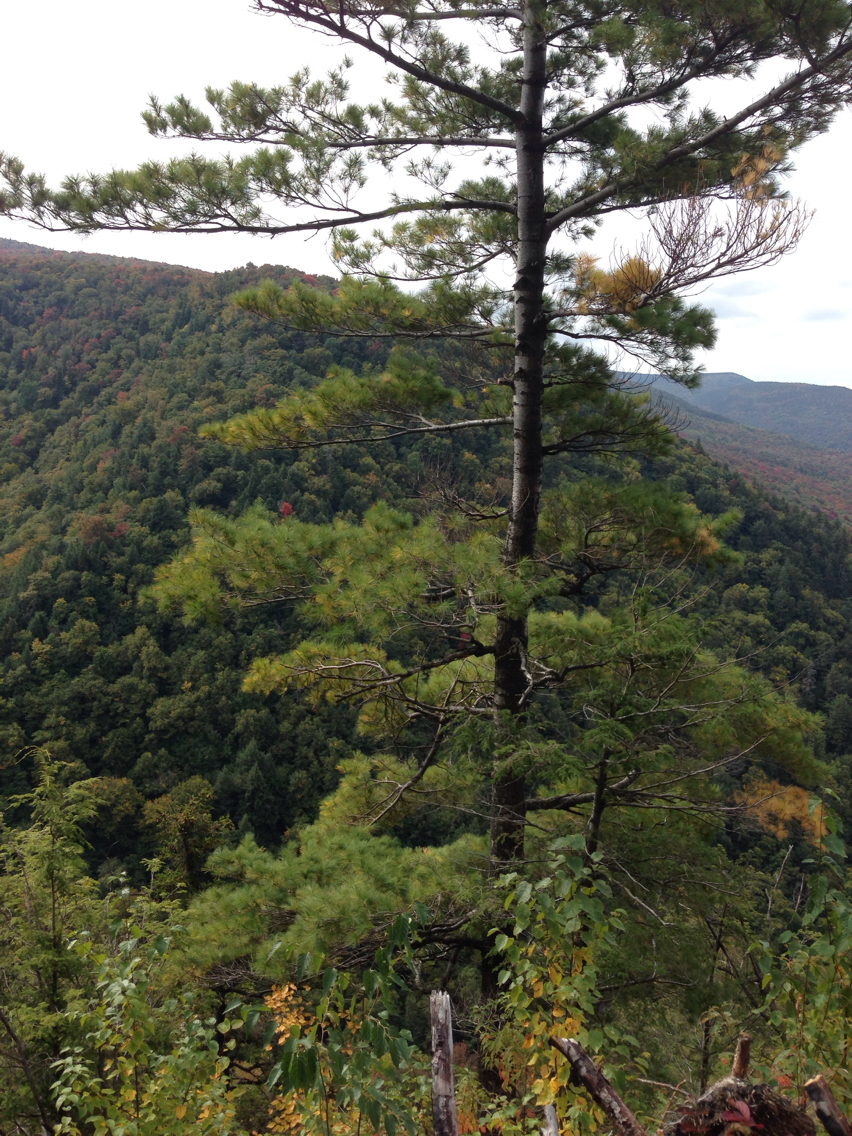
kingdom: Plantae
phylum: Tracheophyta
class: Pinopsida
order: Pinales
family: Pinaceae
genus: Pinus
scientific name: Pinus strobus
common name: Weymouth pine
